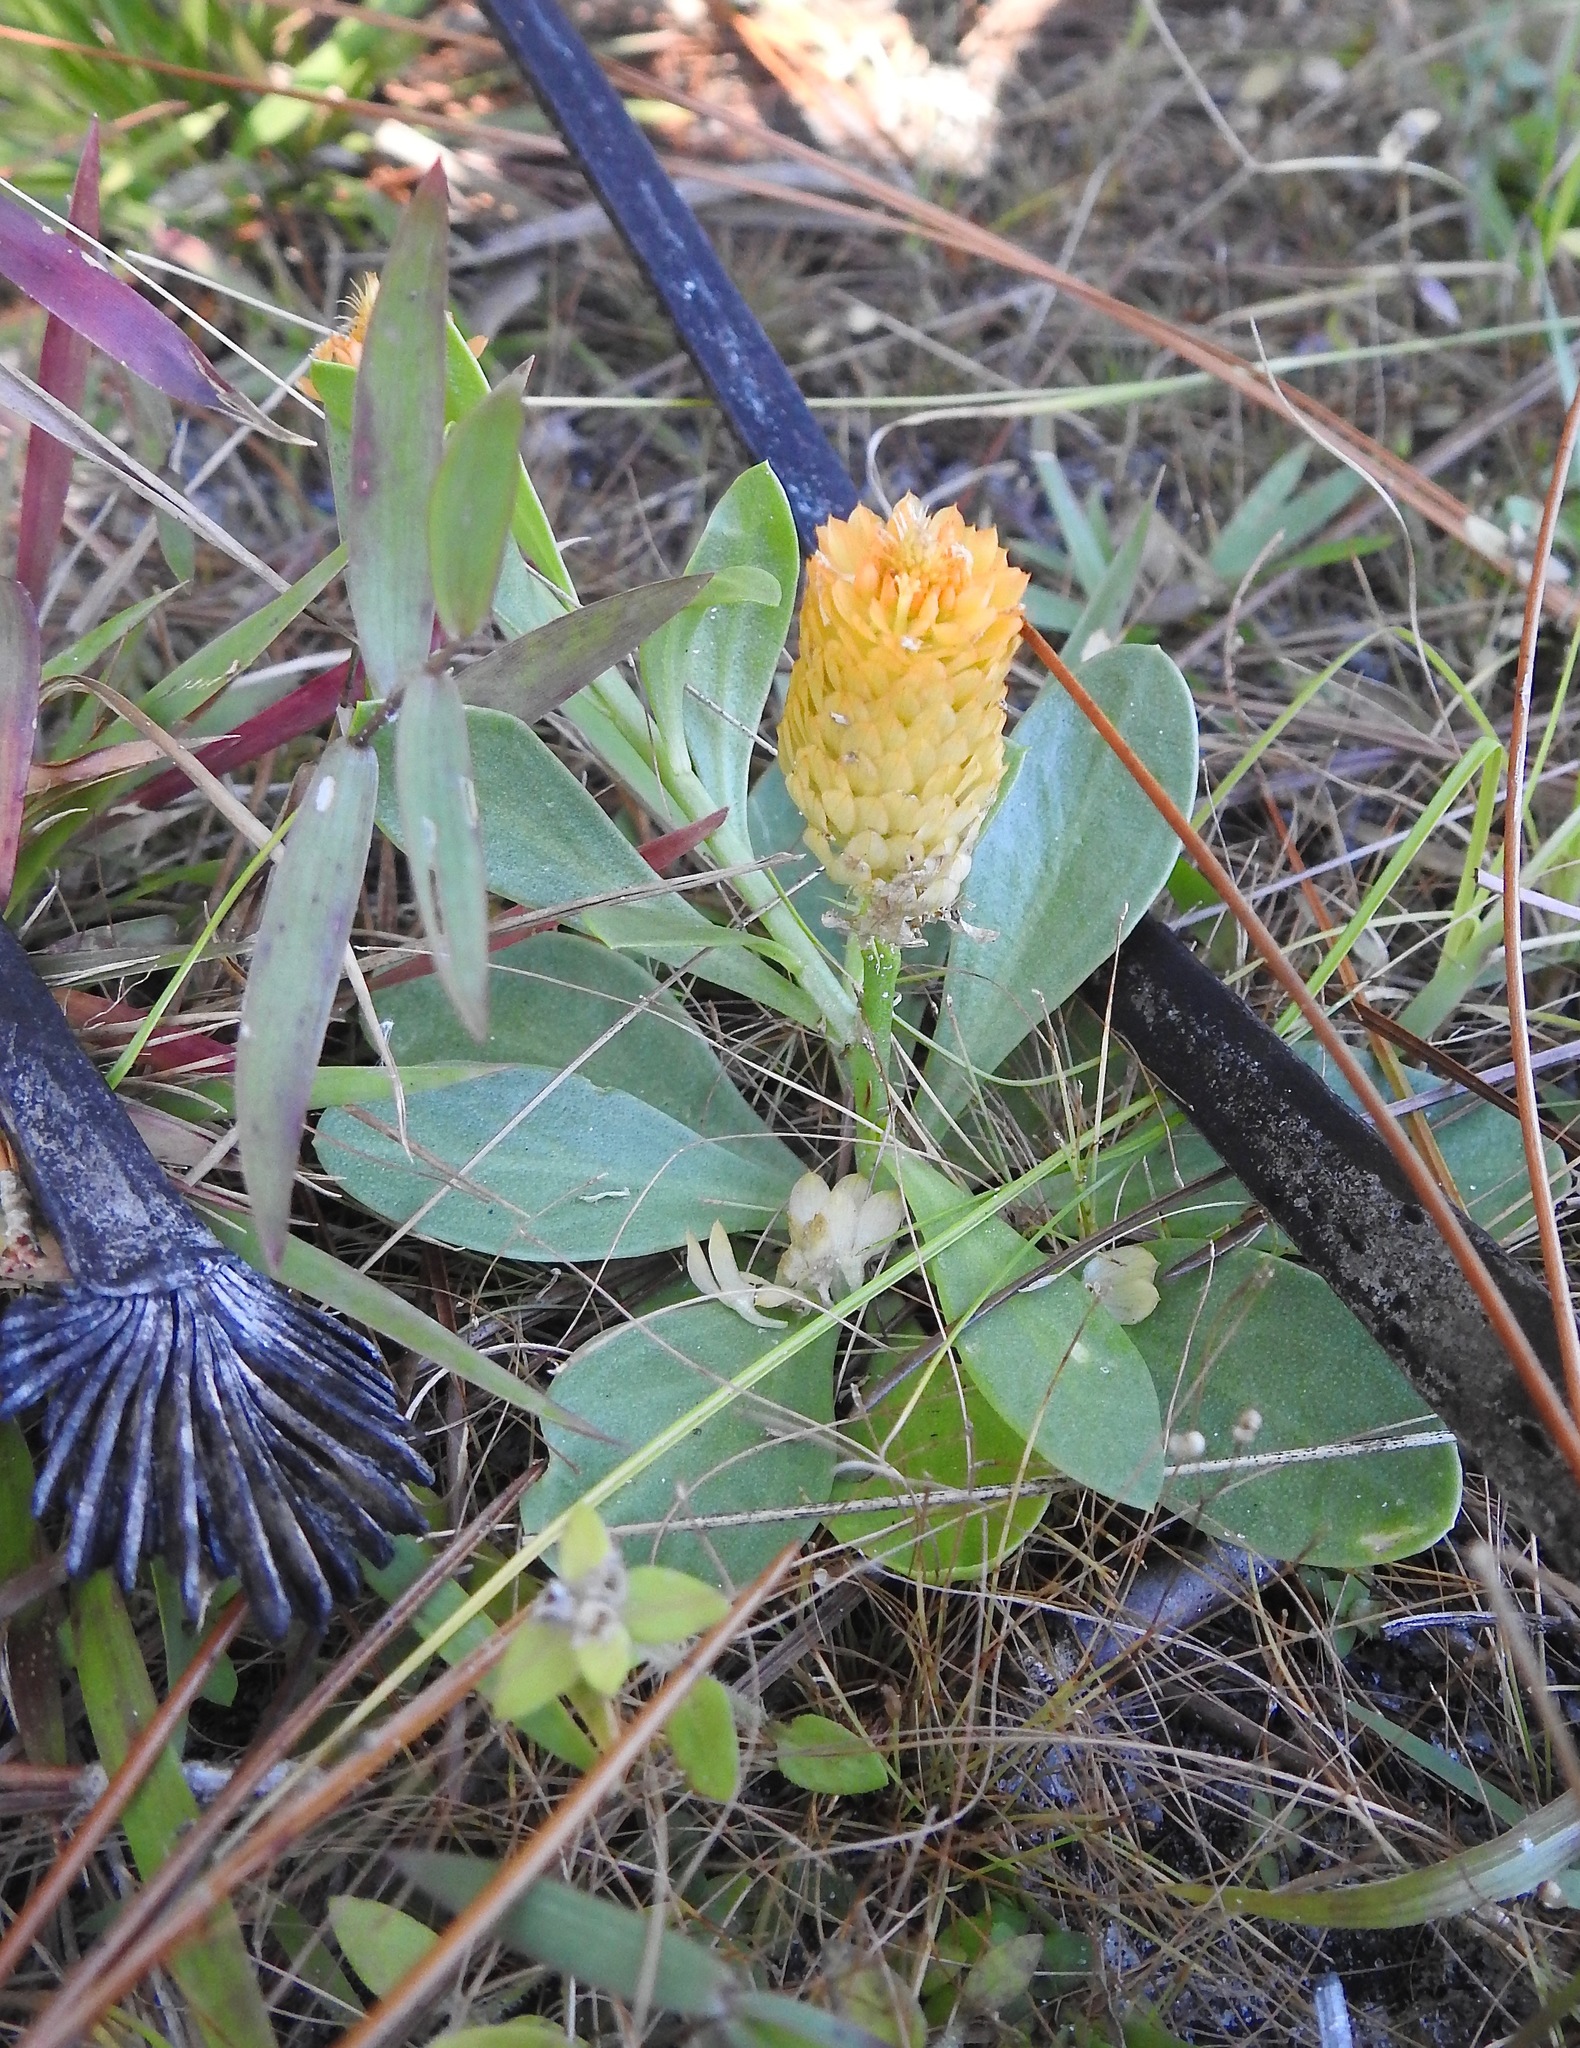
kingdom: Plantae
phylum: Tracheophyta
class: Magnoliopsida
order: Fabales
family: Polygalaceae
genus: Polygala
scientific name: Polygala lutea
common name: Orange milkwort
